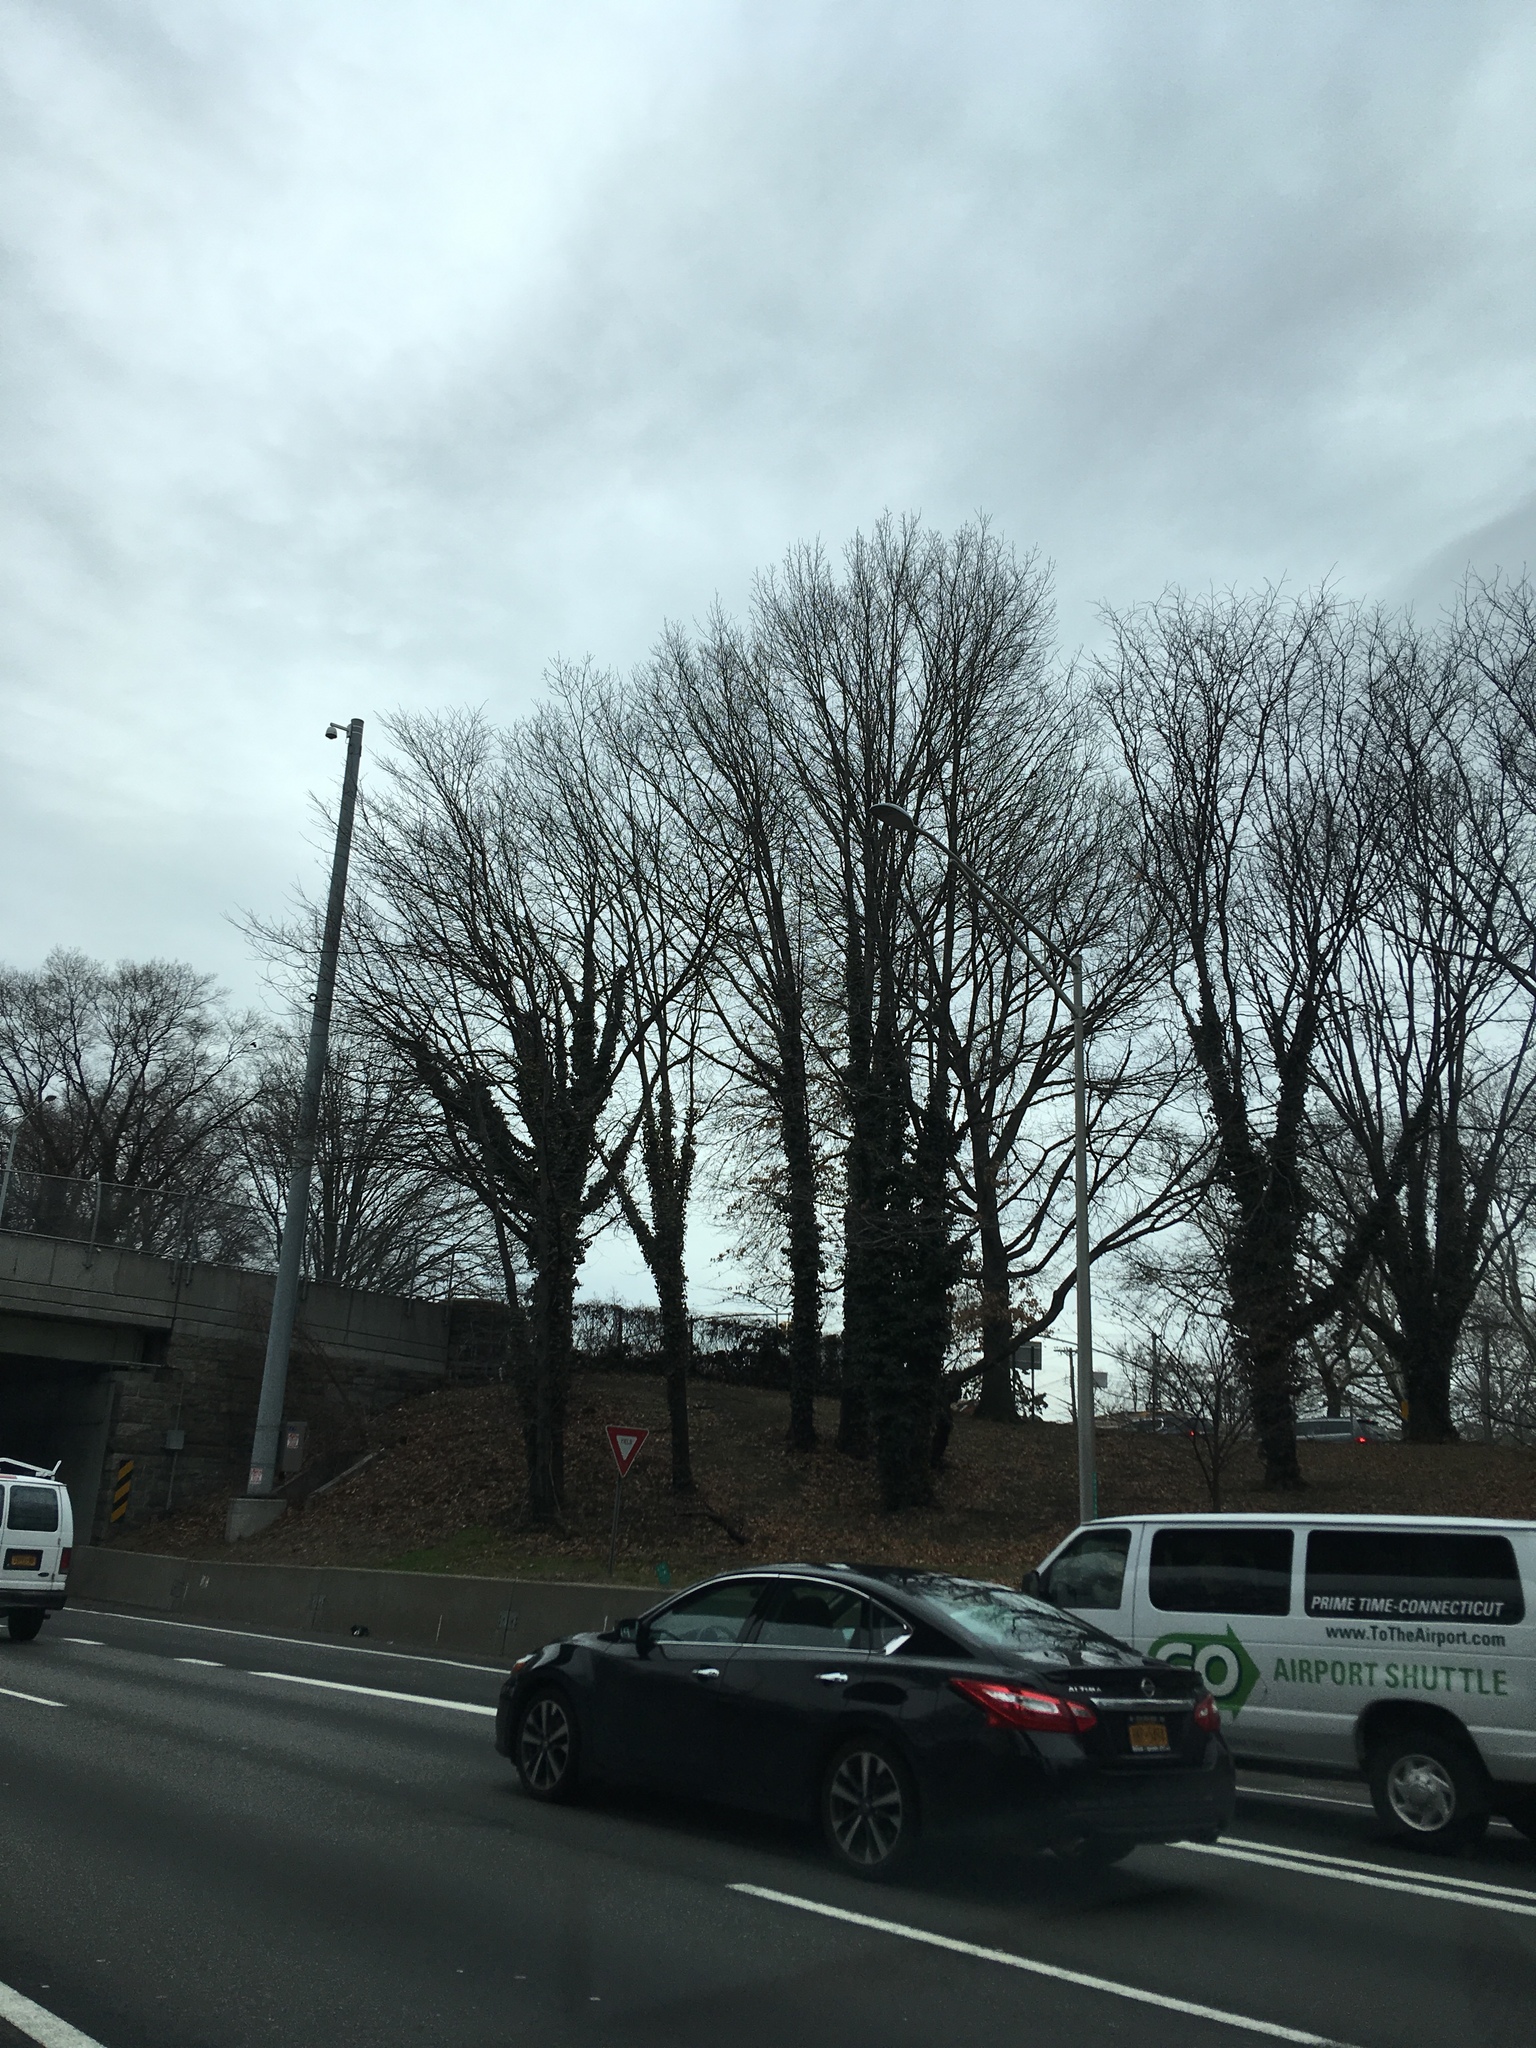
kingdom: Plantae
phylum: Tracheophyta
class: Magnoliopsida
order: Apiales
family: Araliaceae
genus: Hedera
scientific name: Hedera helix
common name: Ivy
